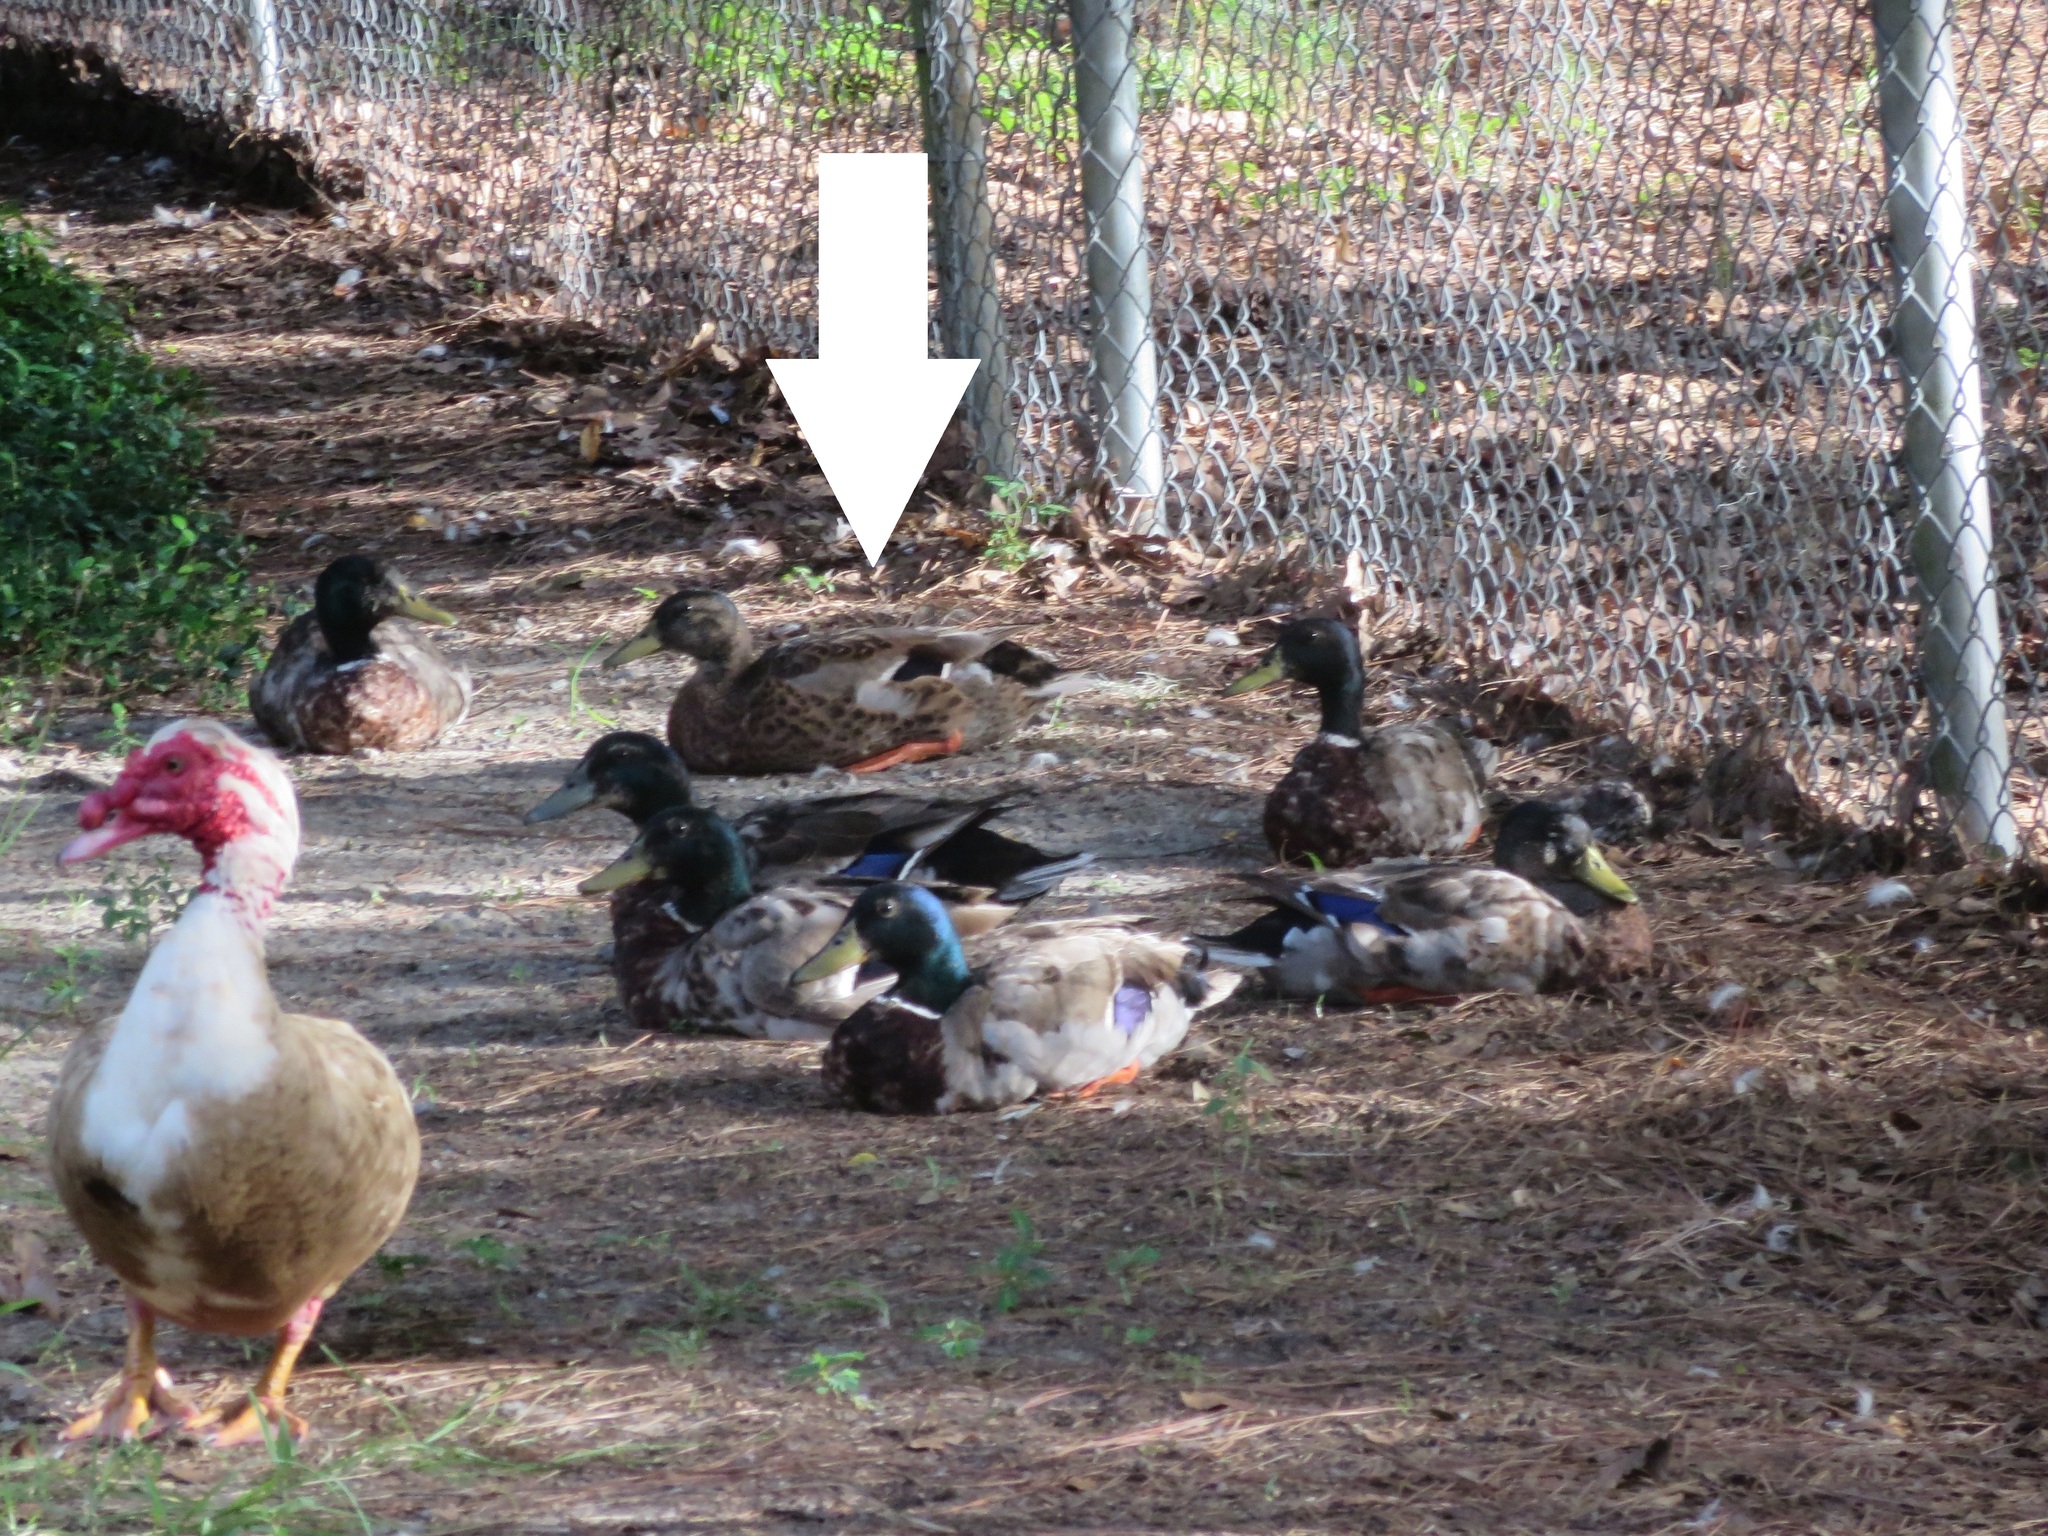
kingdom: Animalia
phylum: Chordata
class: Aves
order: Anseriformes
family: Anatidae
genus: Anas
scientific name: Anas platyrhynchos
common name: Mallard
